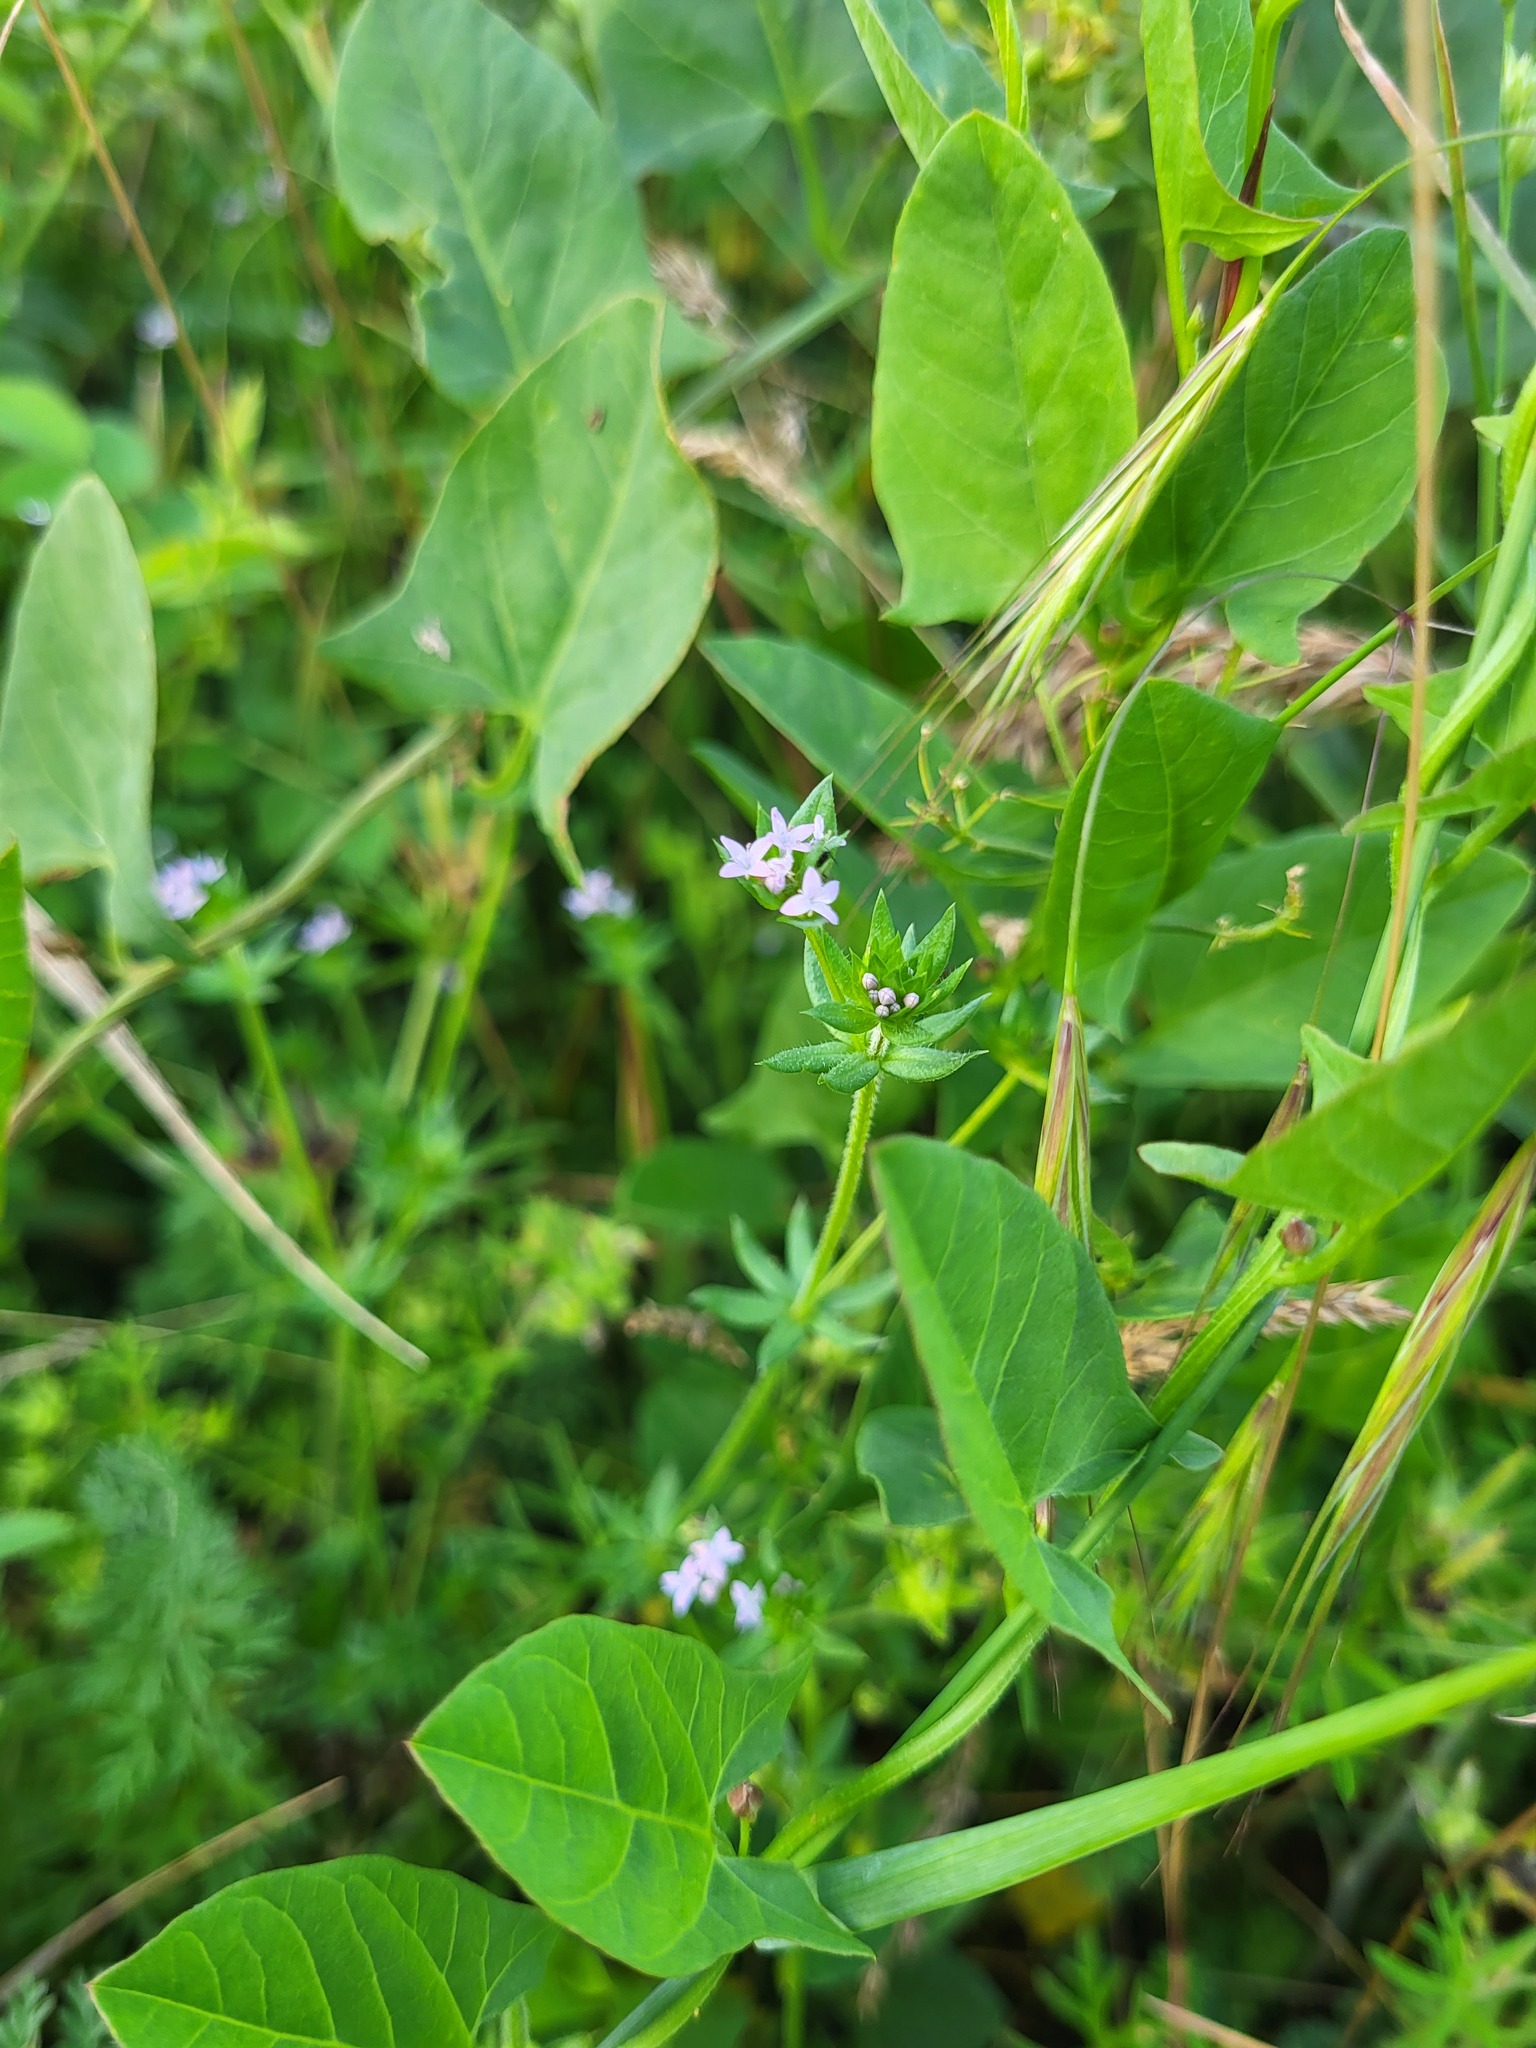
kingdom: Plantae
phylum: Tracheophyta
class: Magnoliopsida
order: Gentianales
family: Rubiaceae
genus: Sherardia
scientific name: Sherardia arvensis
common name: Field madder
